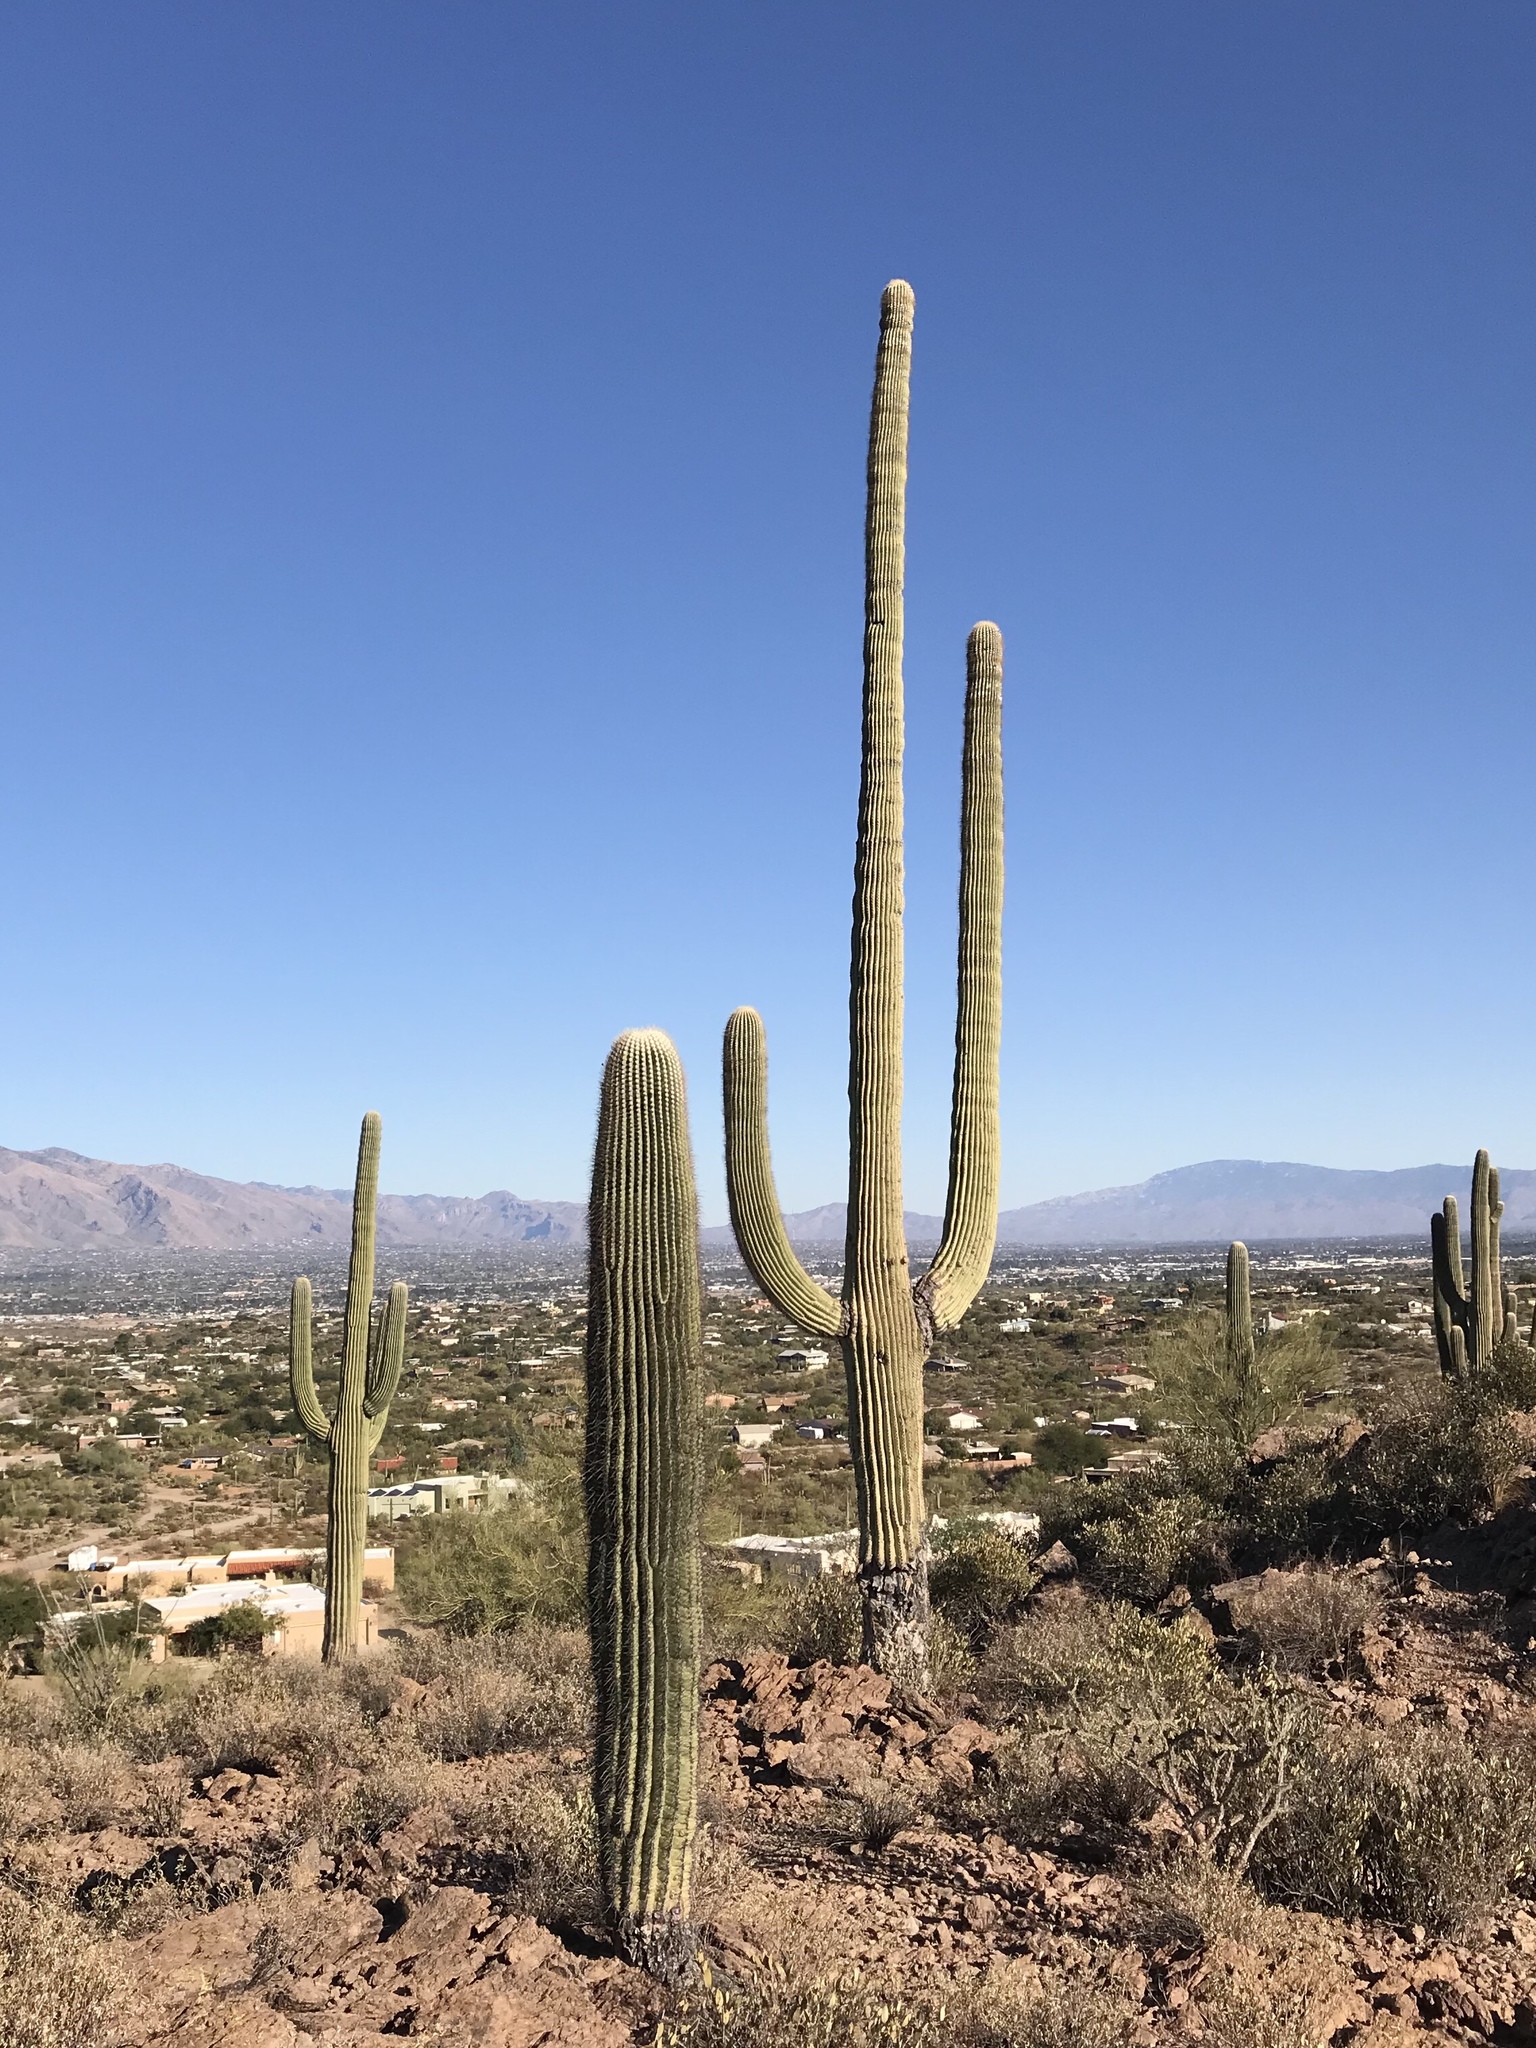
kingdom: Plantae
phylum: Tracheophyta
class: Magnoliopsida
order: Caryophyllales
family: Cactaceae
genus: Carnegiea
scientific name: Carnegiea gigantea
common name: Saguaro
